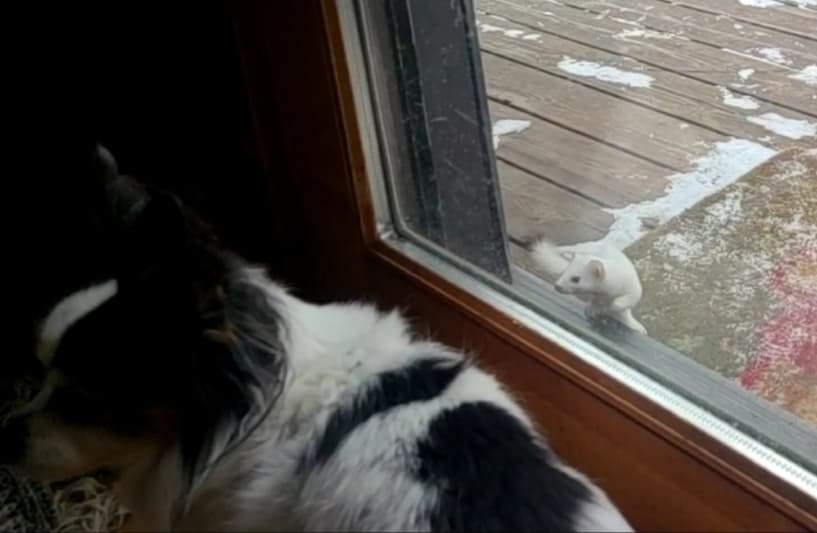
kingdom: Animalia
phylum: Chordata
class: Mammalia
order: Carnivora
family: Mustelidae
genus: Mustela
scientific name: Mustela erminea
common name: Stoat
